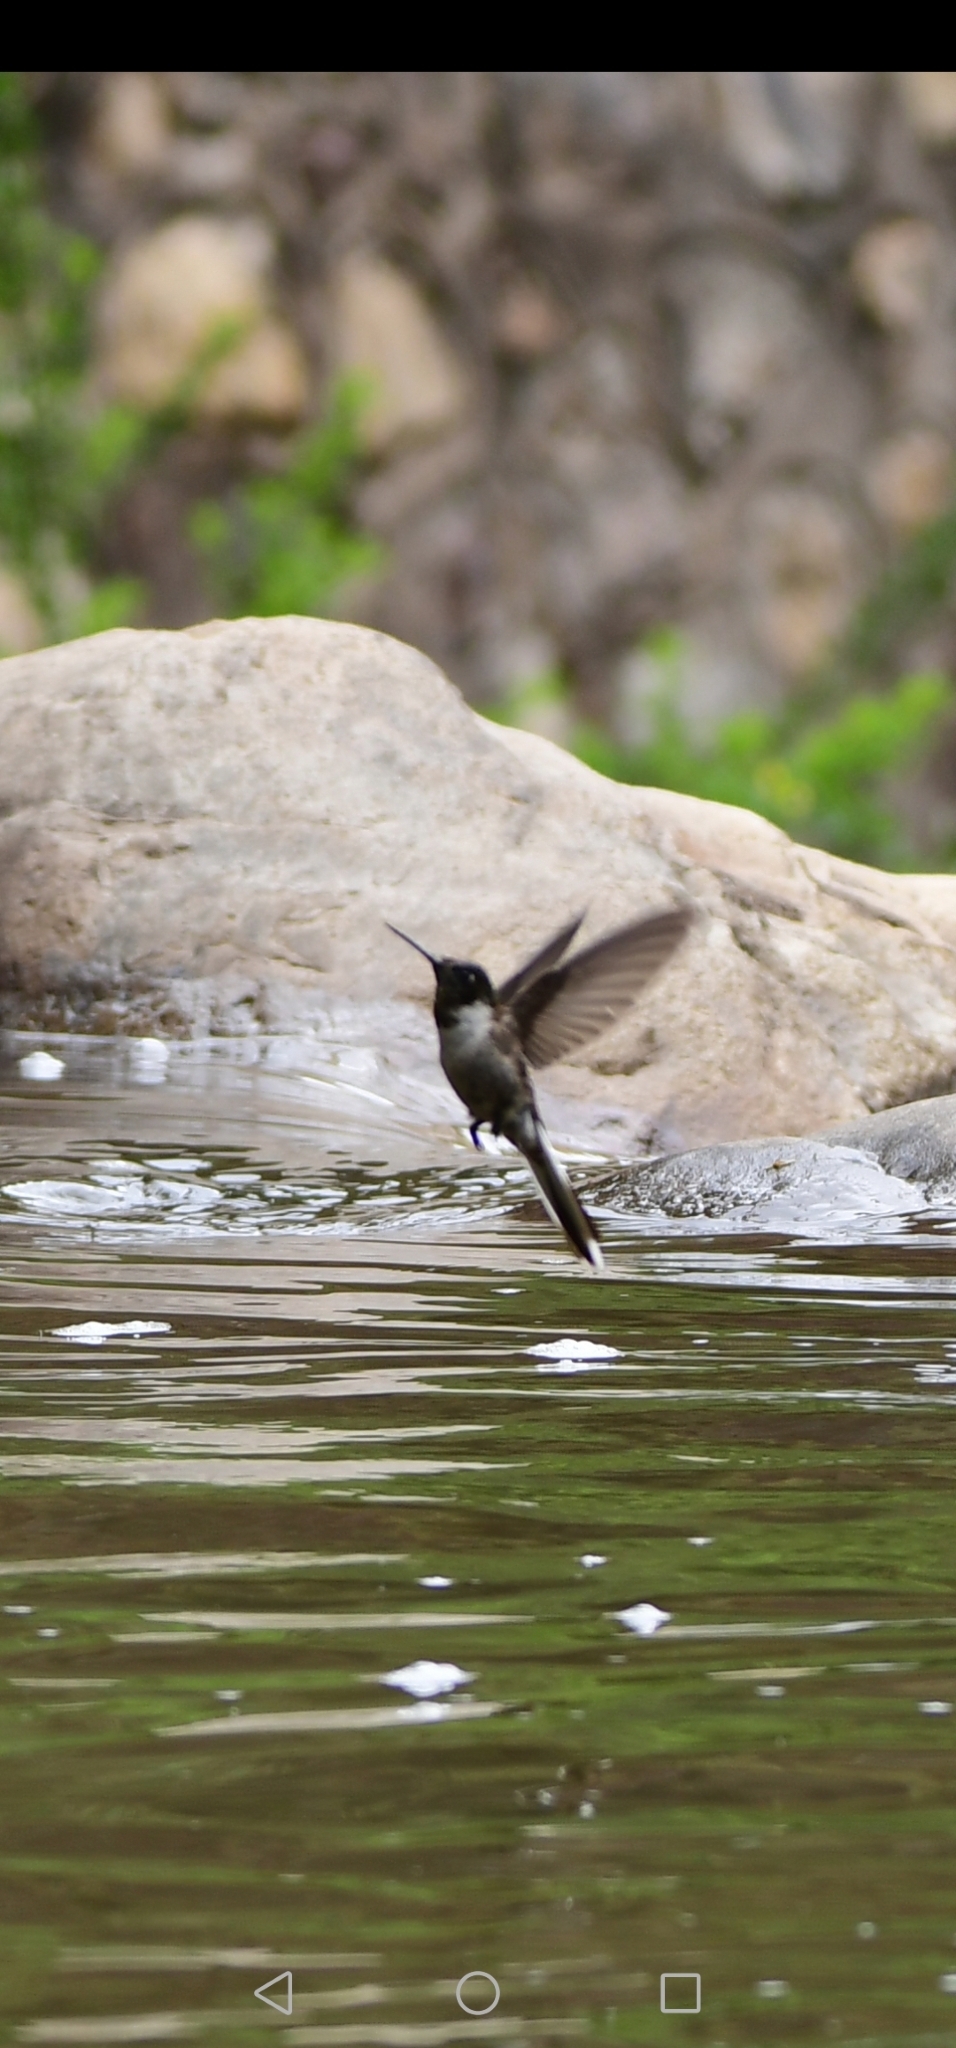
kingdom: Animalia
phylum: Chordata
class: Aves
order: Apodiformes
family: Trochilidae
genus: Oreotrochilus
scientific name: Oreotrochilus estella
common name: Andean hillstar
